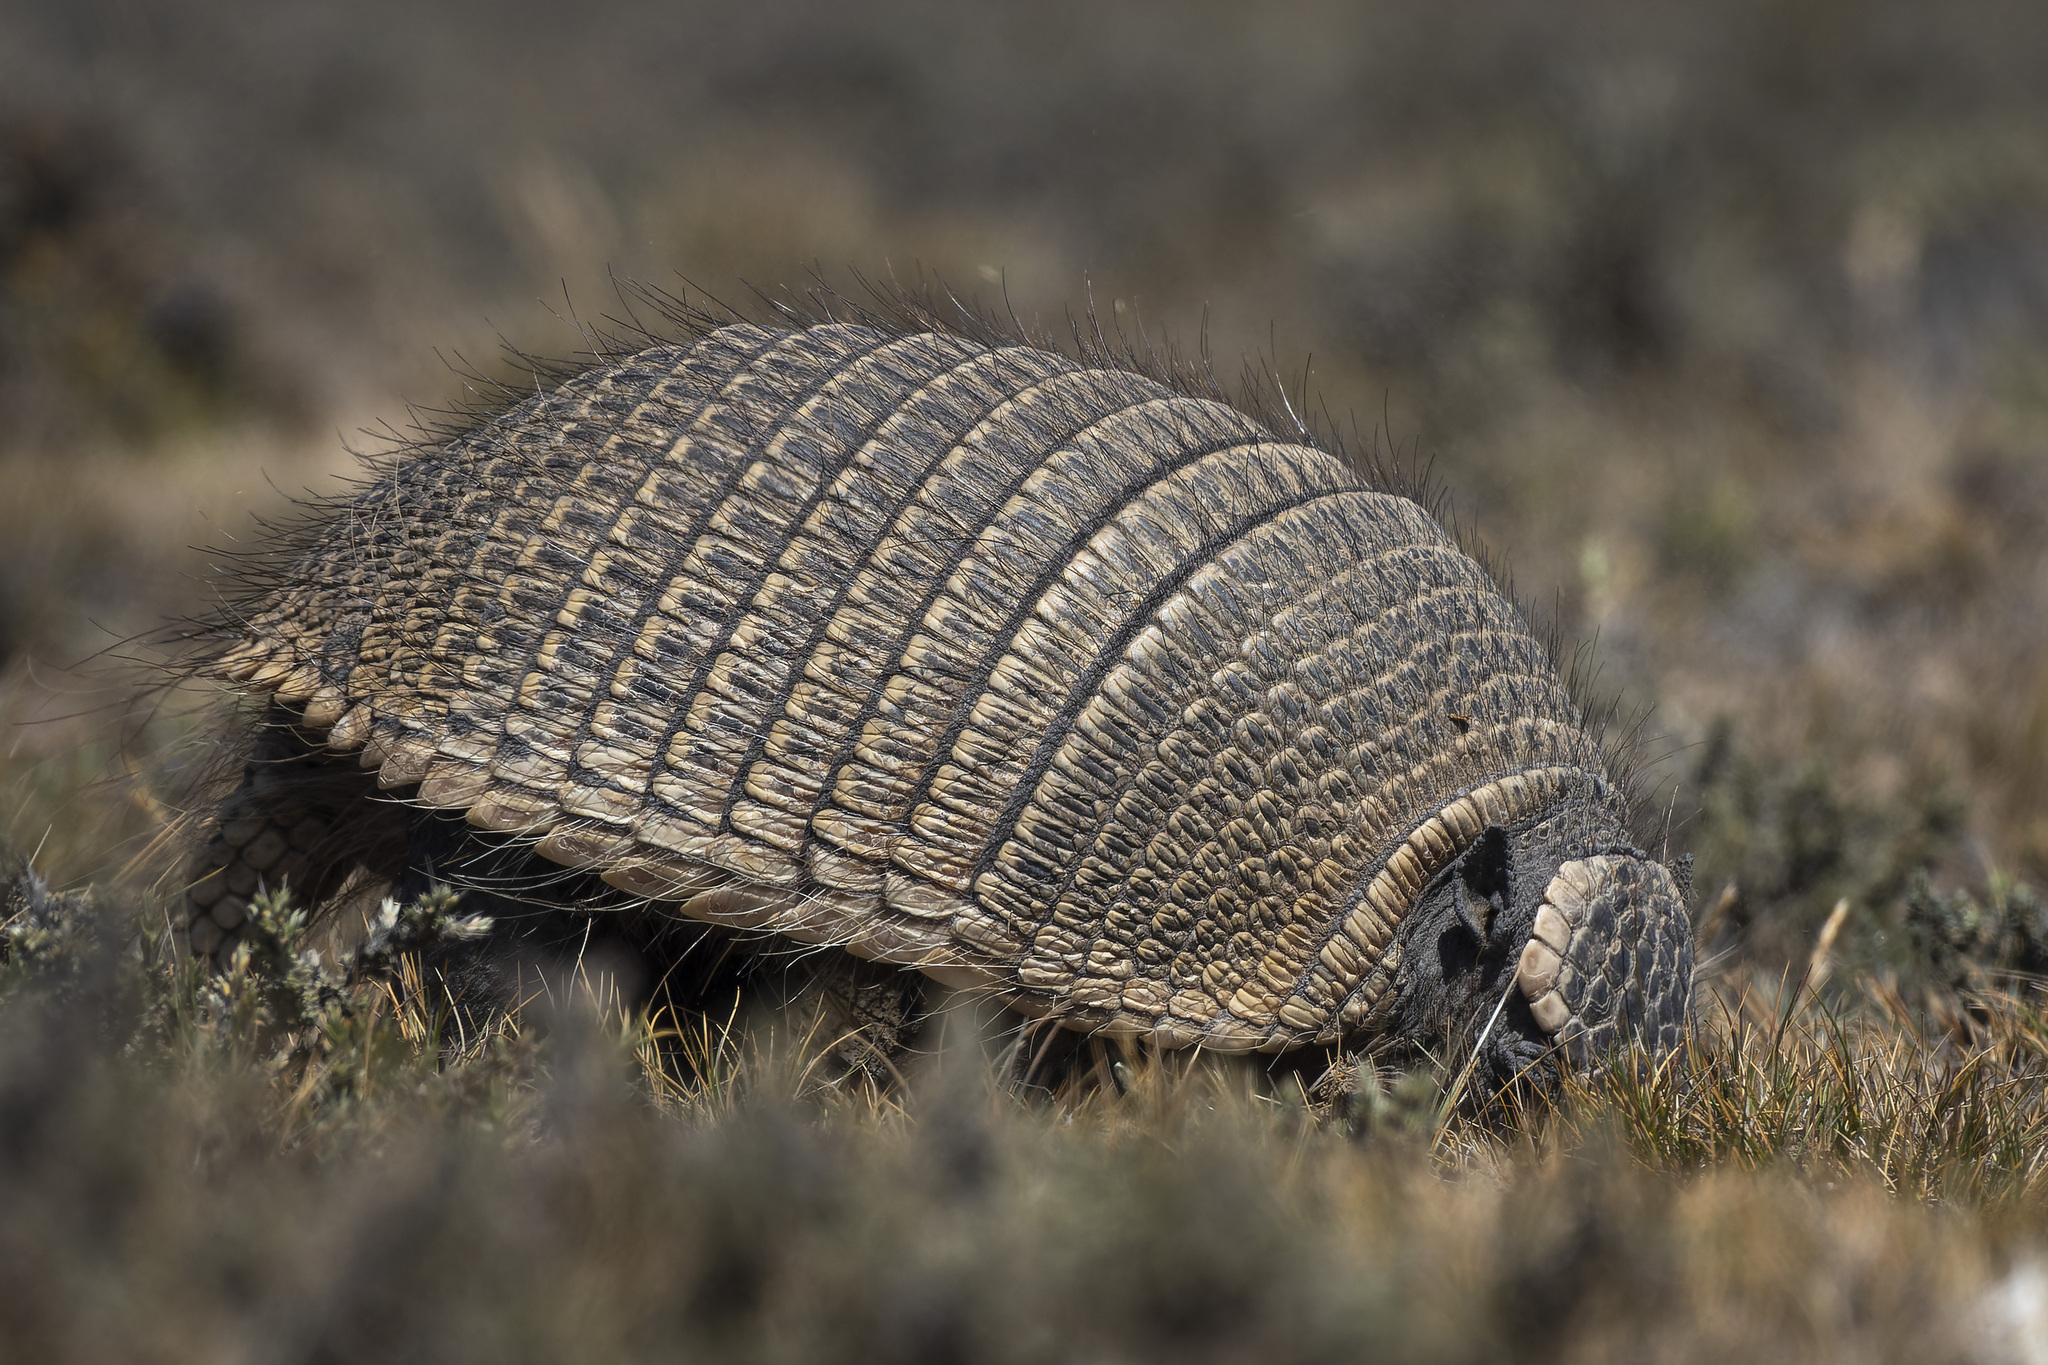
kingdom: Animalia
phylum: Chordata
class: Mammalia
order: Cingulata
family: Dasypodidae
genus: Zaedyus
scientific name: Zaedyus pichiy
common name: Pichi
